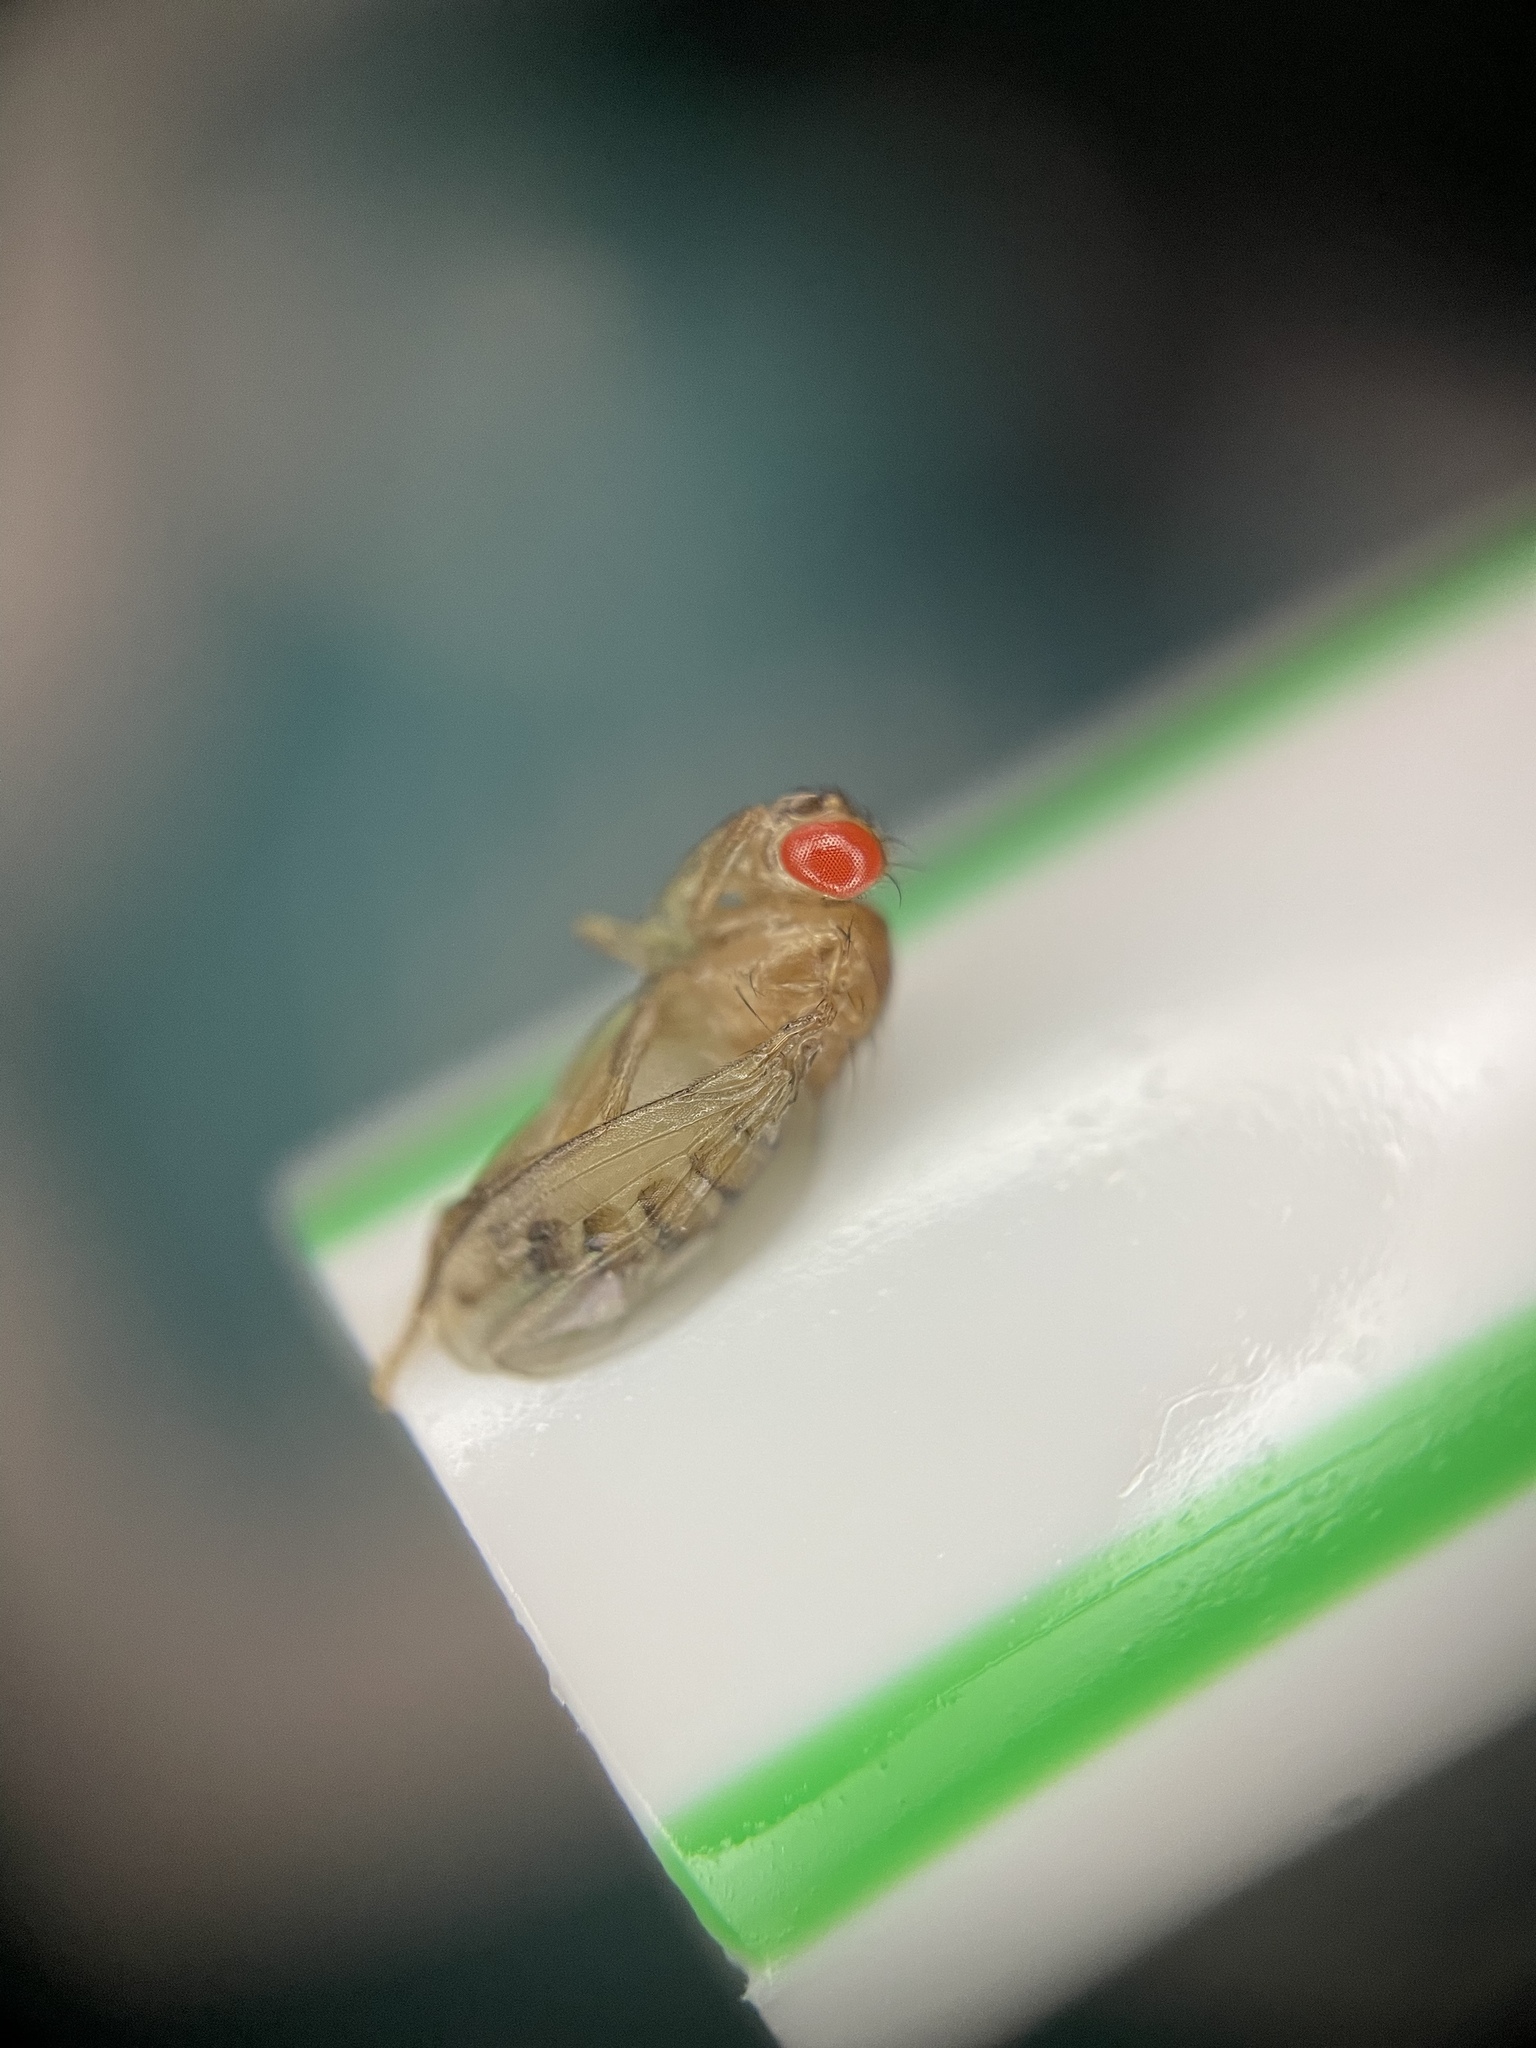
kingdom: Animalia
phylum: Arthropoda
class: Insecta
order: Diptera
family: Drosophilidae
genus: Drosophila
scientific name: Drosophila melanogaster
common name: Pomace fly
